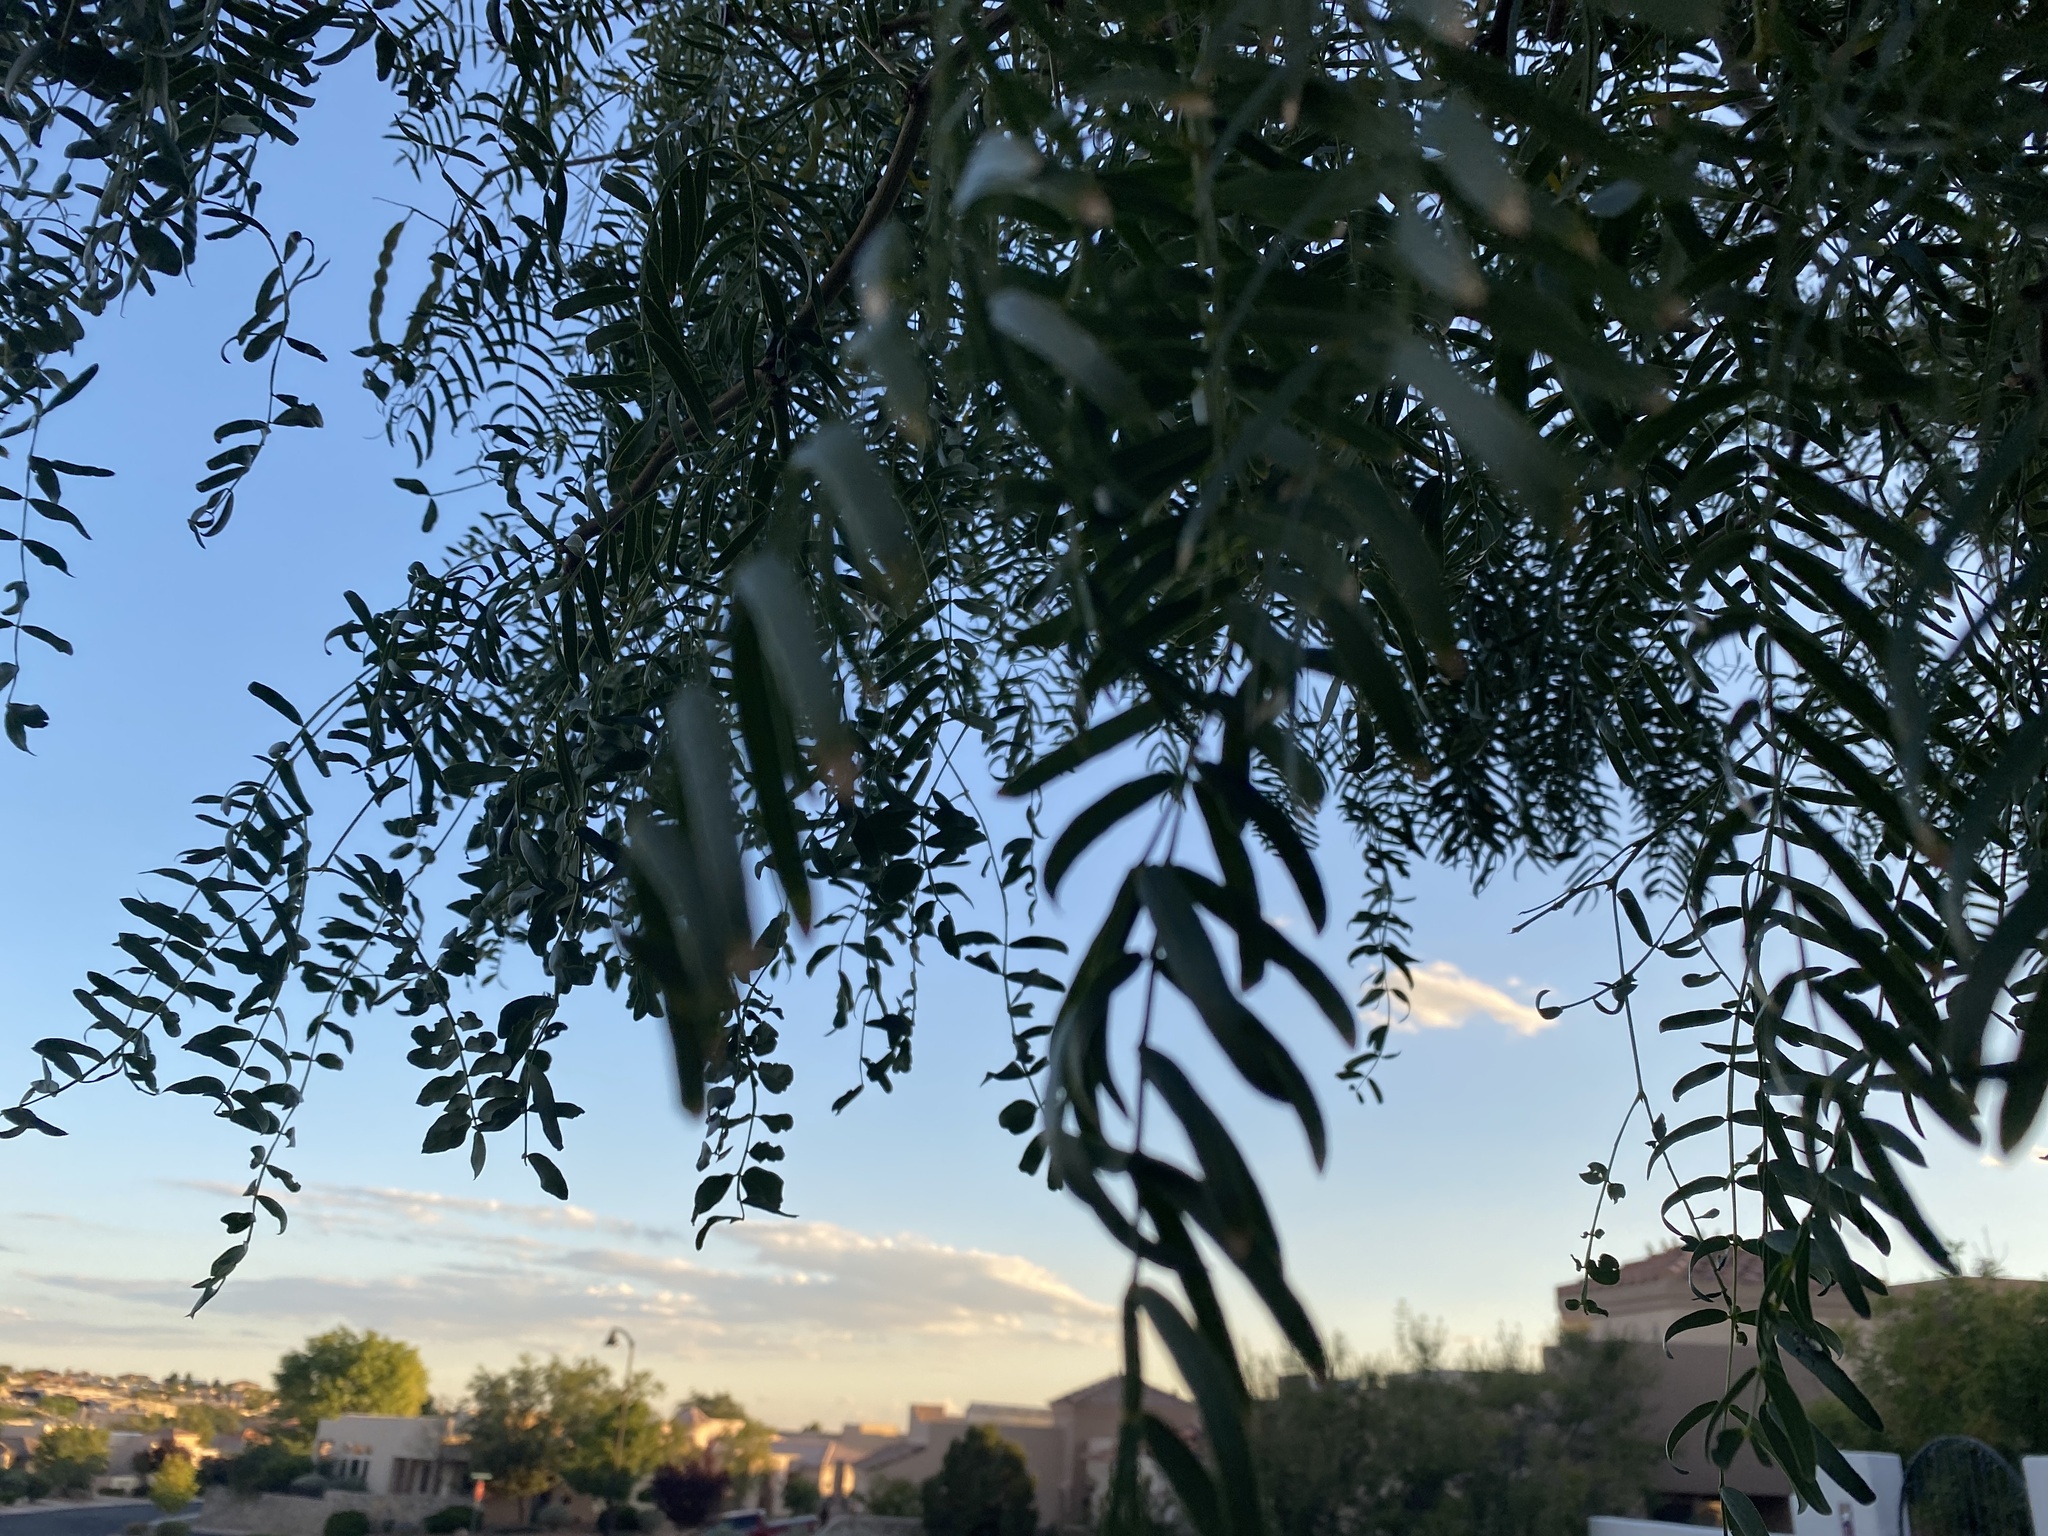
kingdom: Plantae
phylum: Tracheophyta
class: Magnoliopsida
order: Fabales
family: Fabaceae
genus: Prosopis
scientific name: Prosopis glandulosa
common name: Honey mesquite
